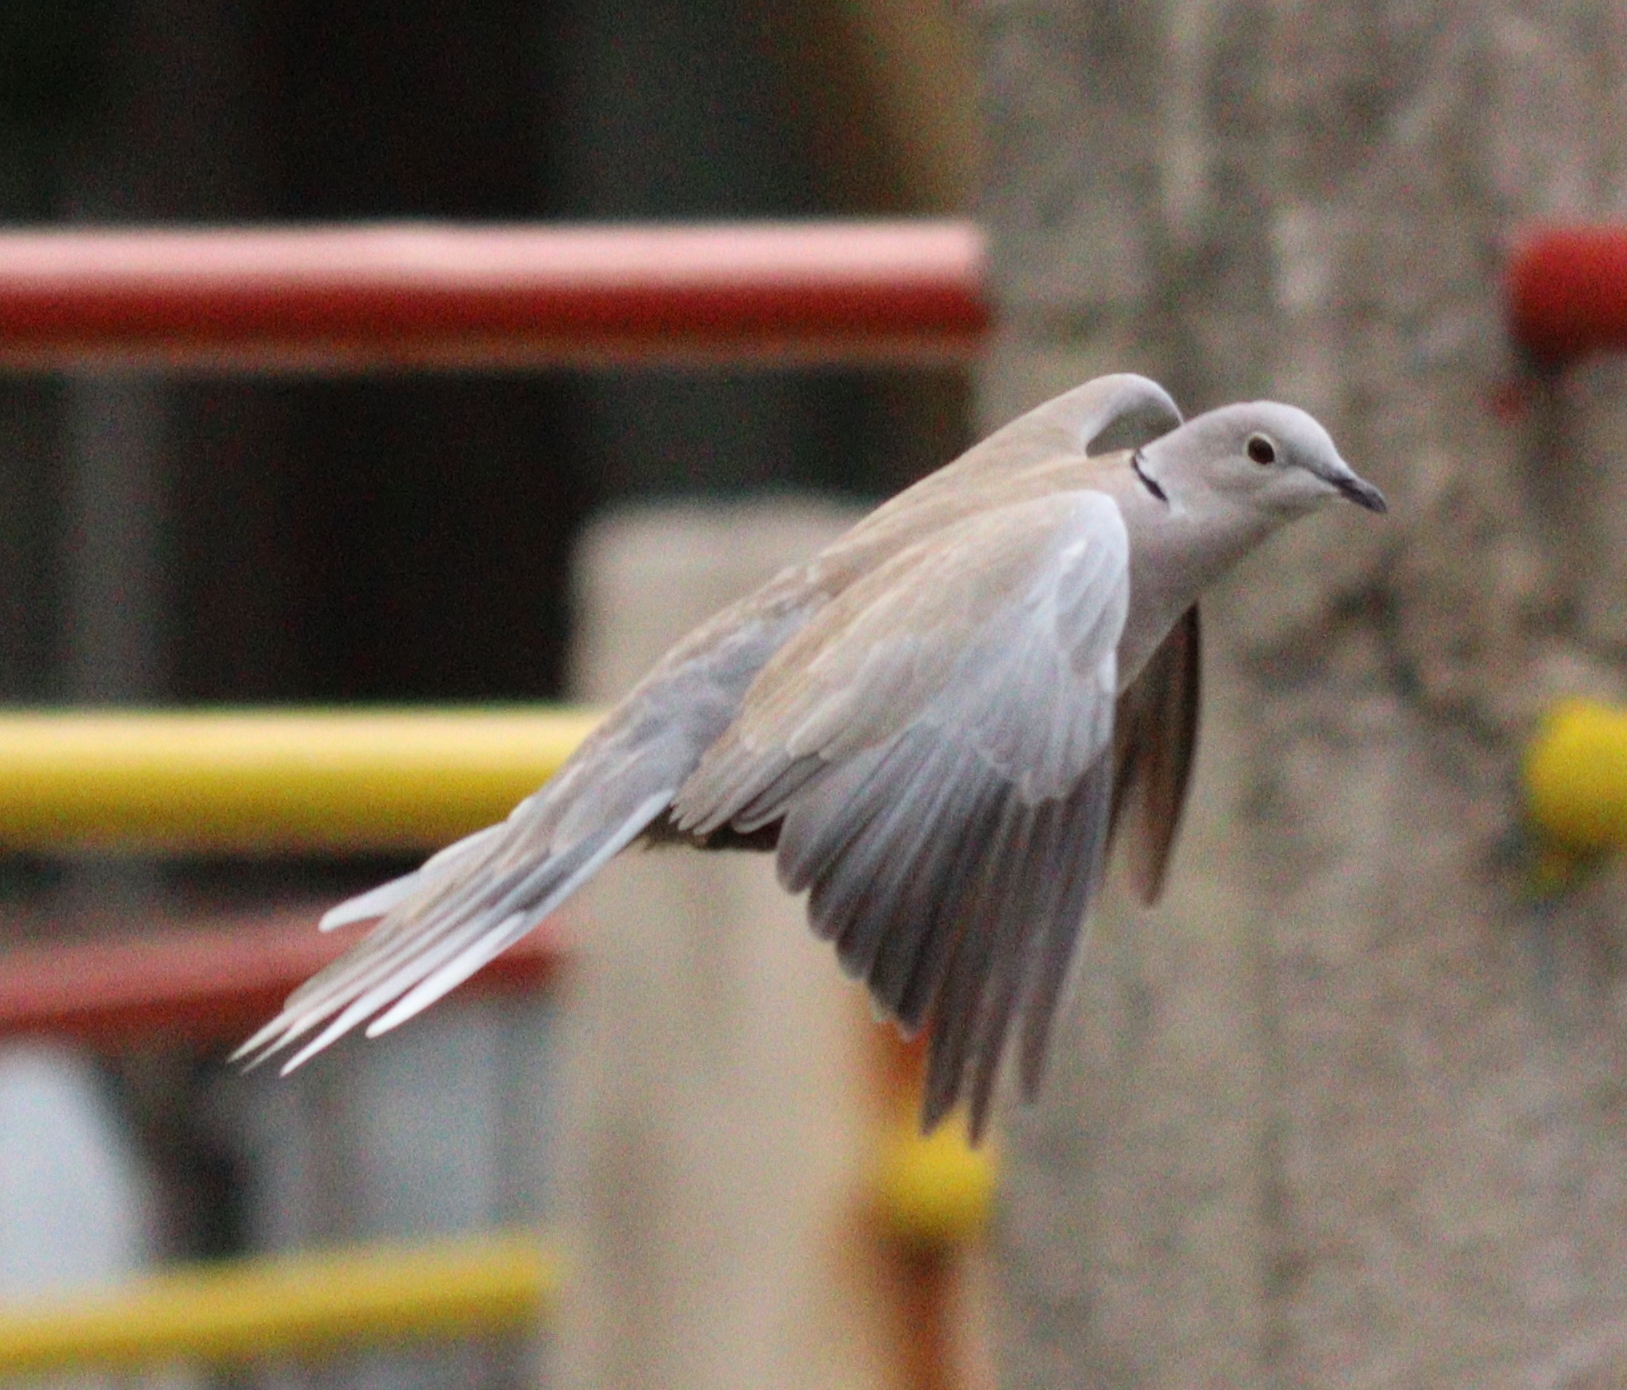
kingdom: Animalia
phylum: Chordata
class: Aves
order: Columbiformes
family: Columbidae
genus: Streptopelia
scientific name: Streptopelia decaocto
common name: Eurasian collared dove
